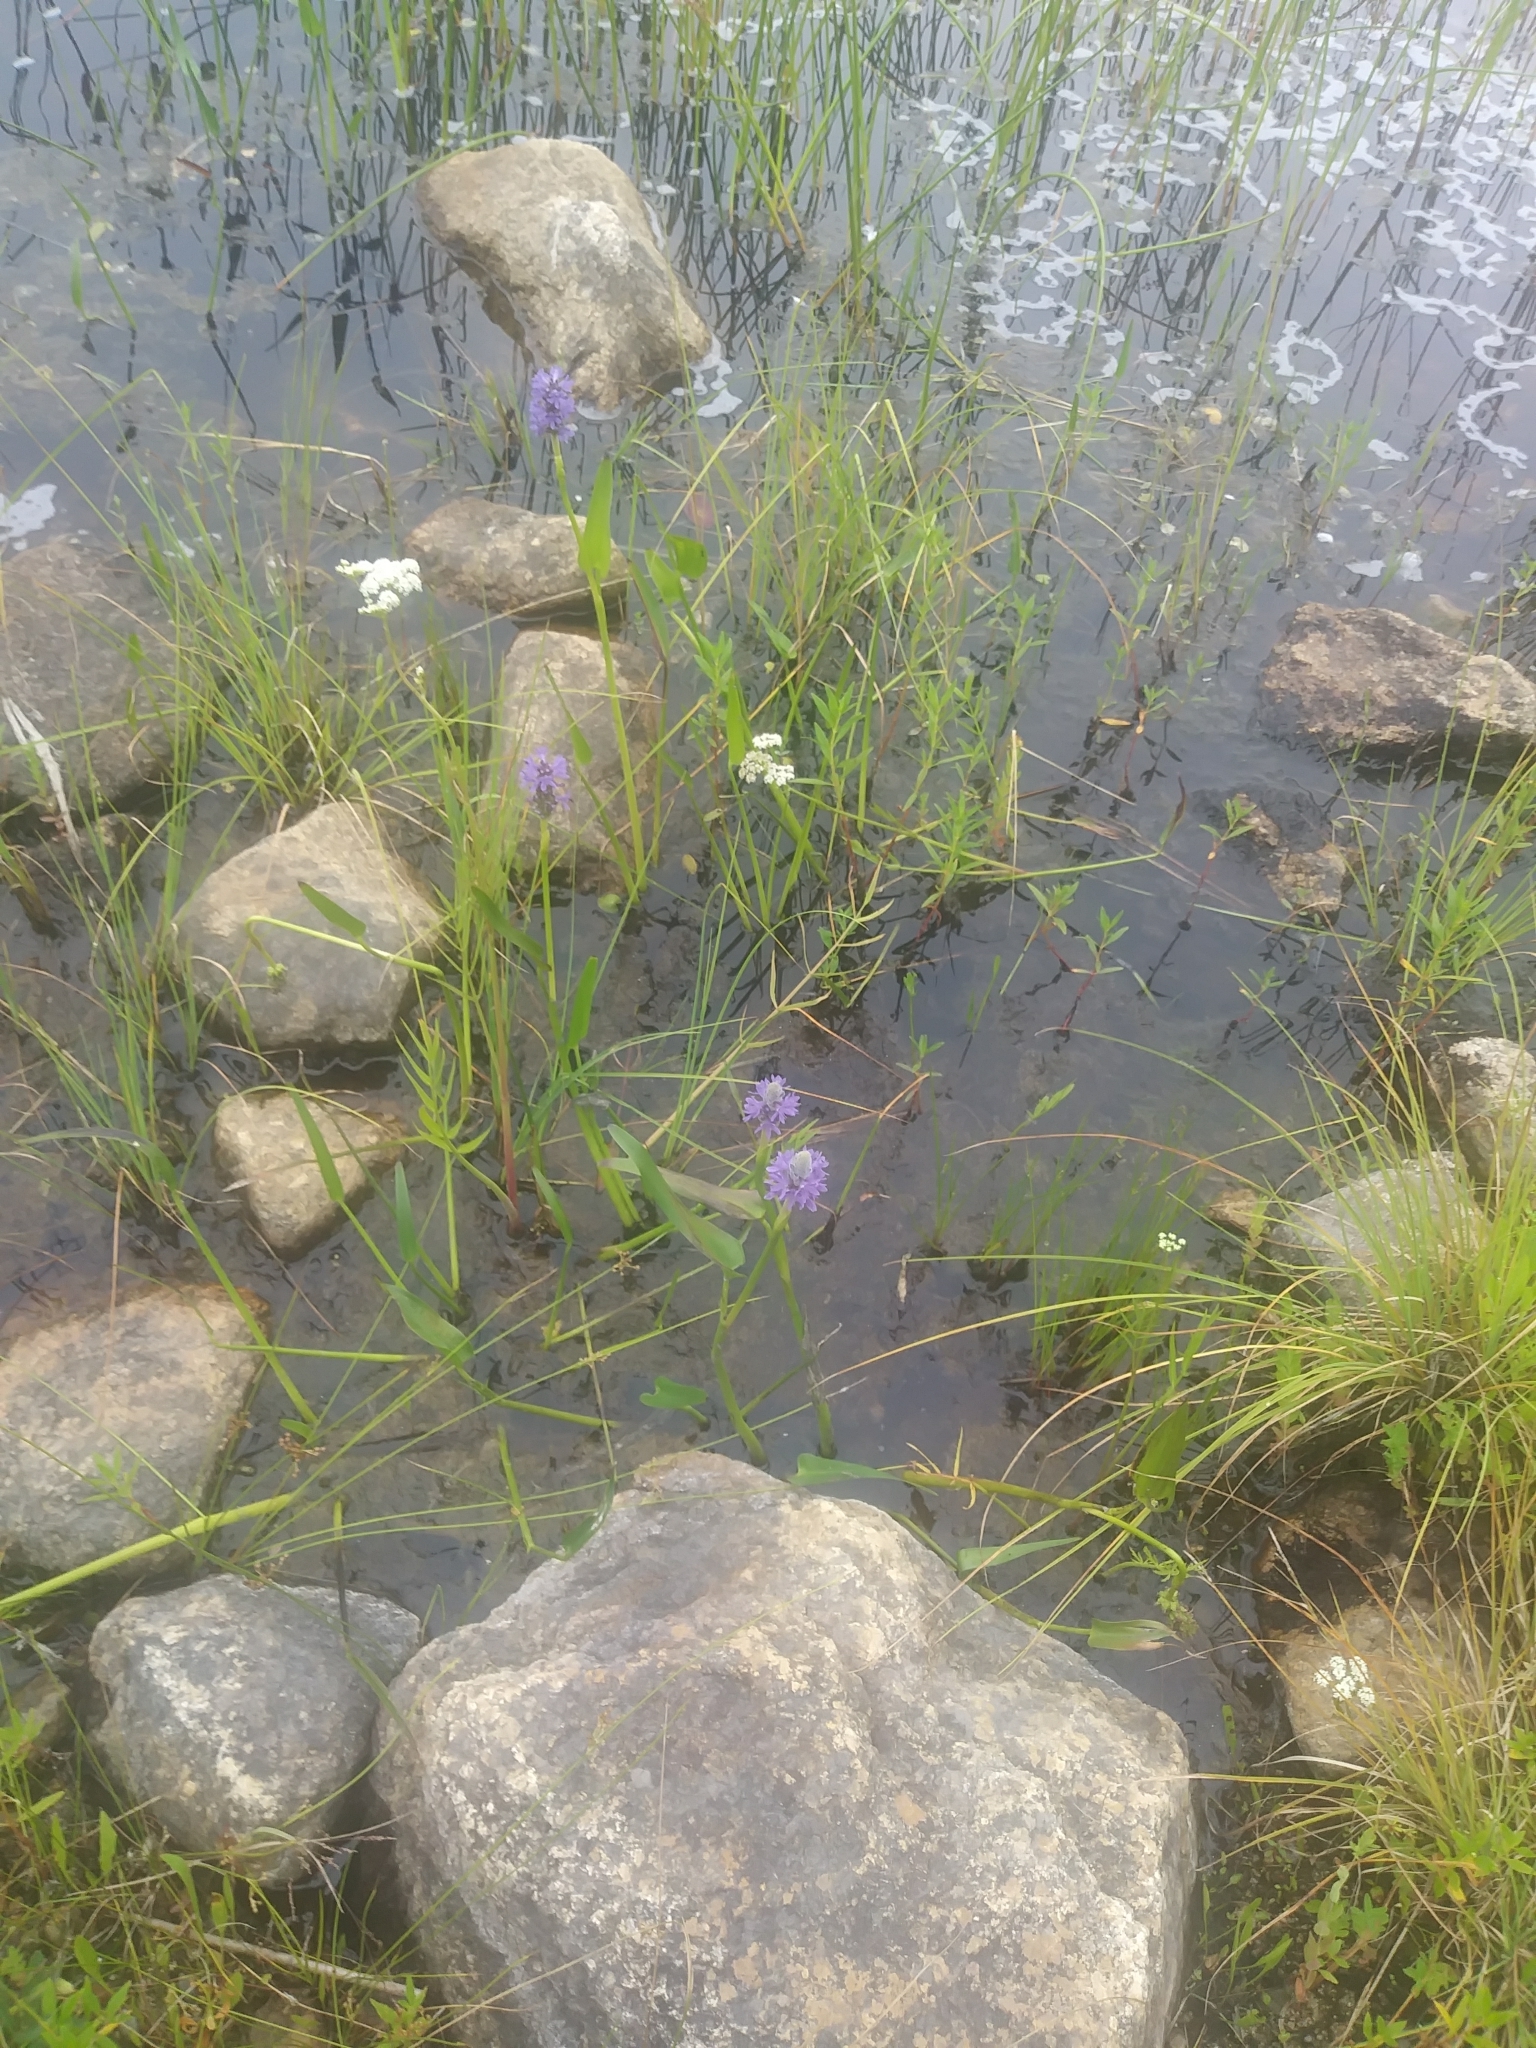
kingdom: Plantae
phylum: Tracheophyta
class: Liliopsida
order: Commelinales
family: Pontederiaceae
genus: Pontederia
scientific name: Pontederia cordata
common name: Pickerelweed
